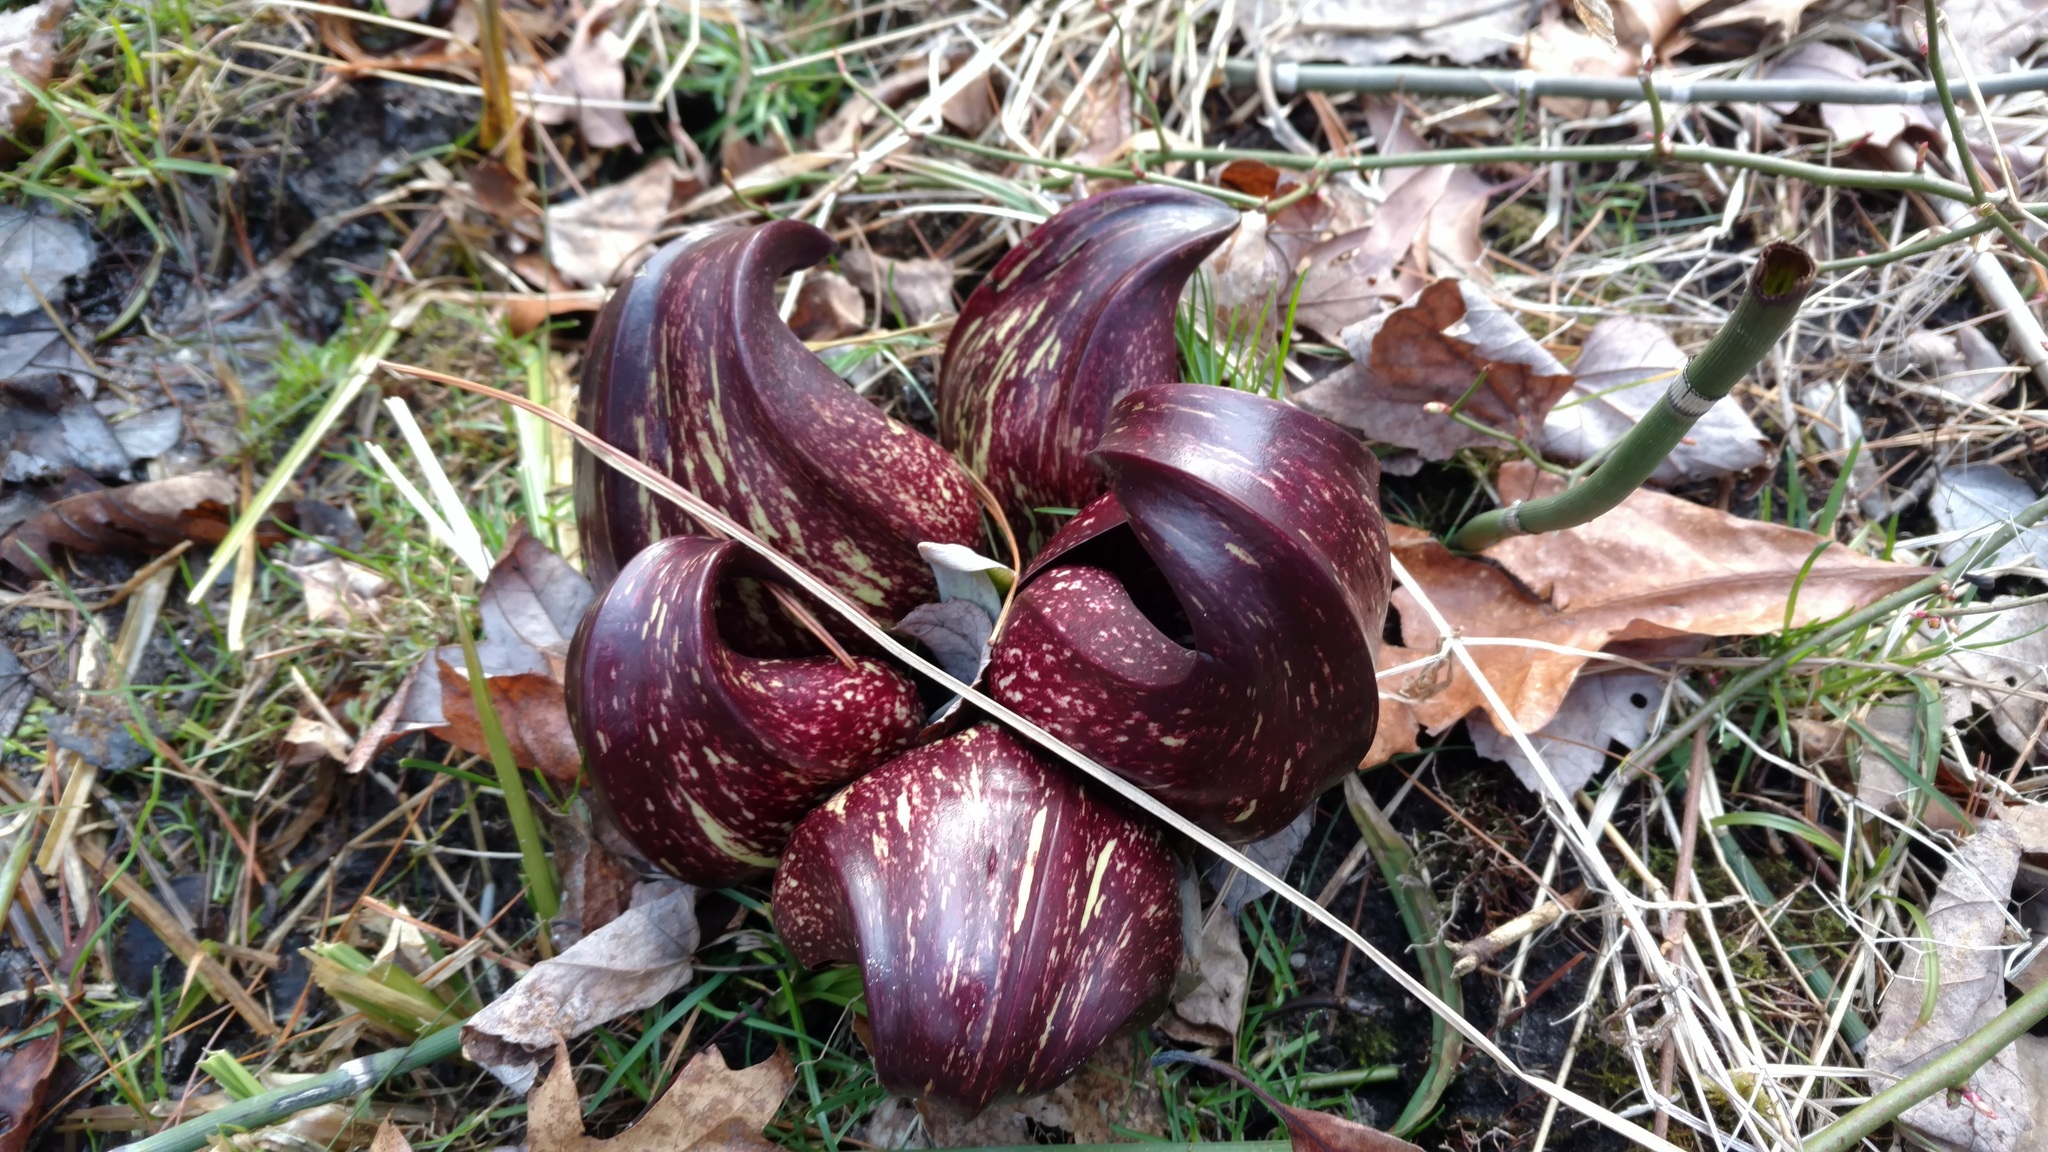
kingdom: Plantae
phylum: Tracheophyta
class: Liliopsida
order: Alismatales
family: Araceae
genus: Symplocarpus
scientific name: Symplocarpus foetidus
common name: Eastern skunk cabbage
